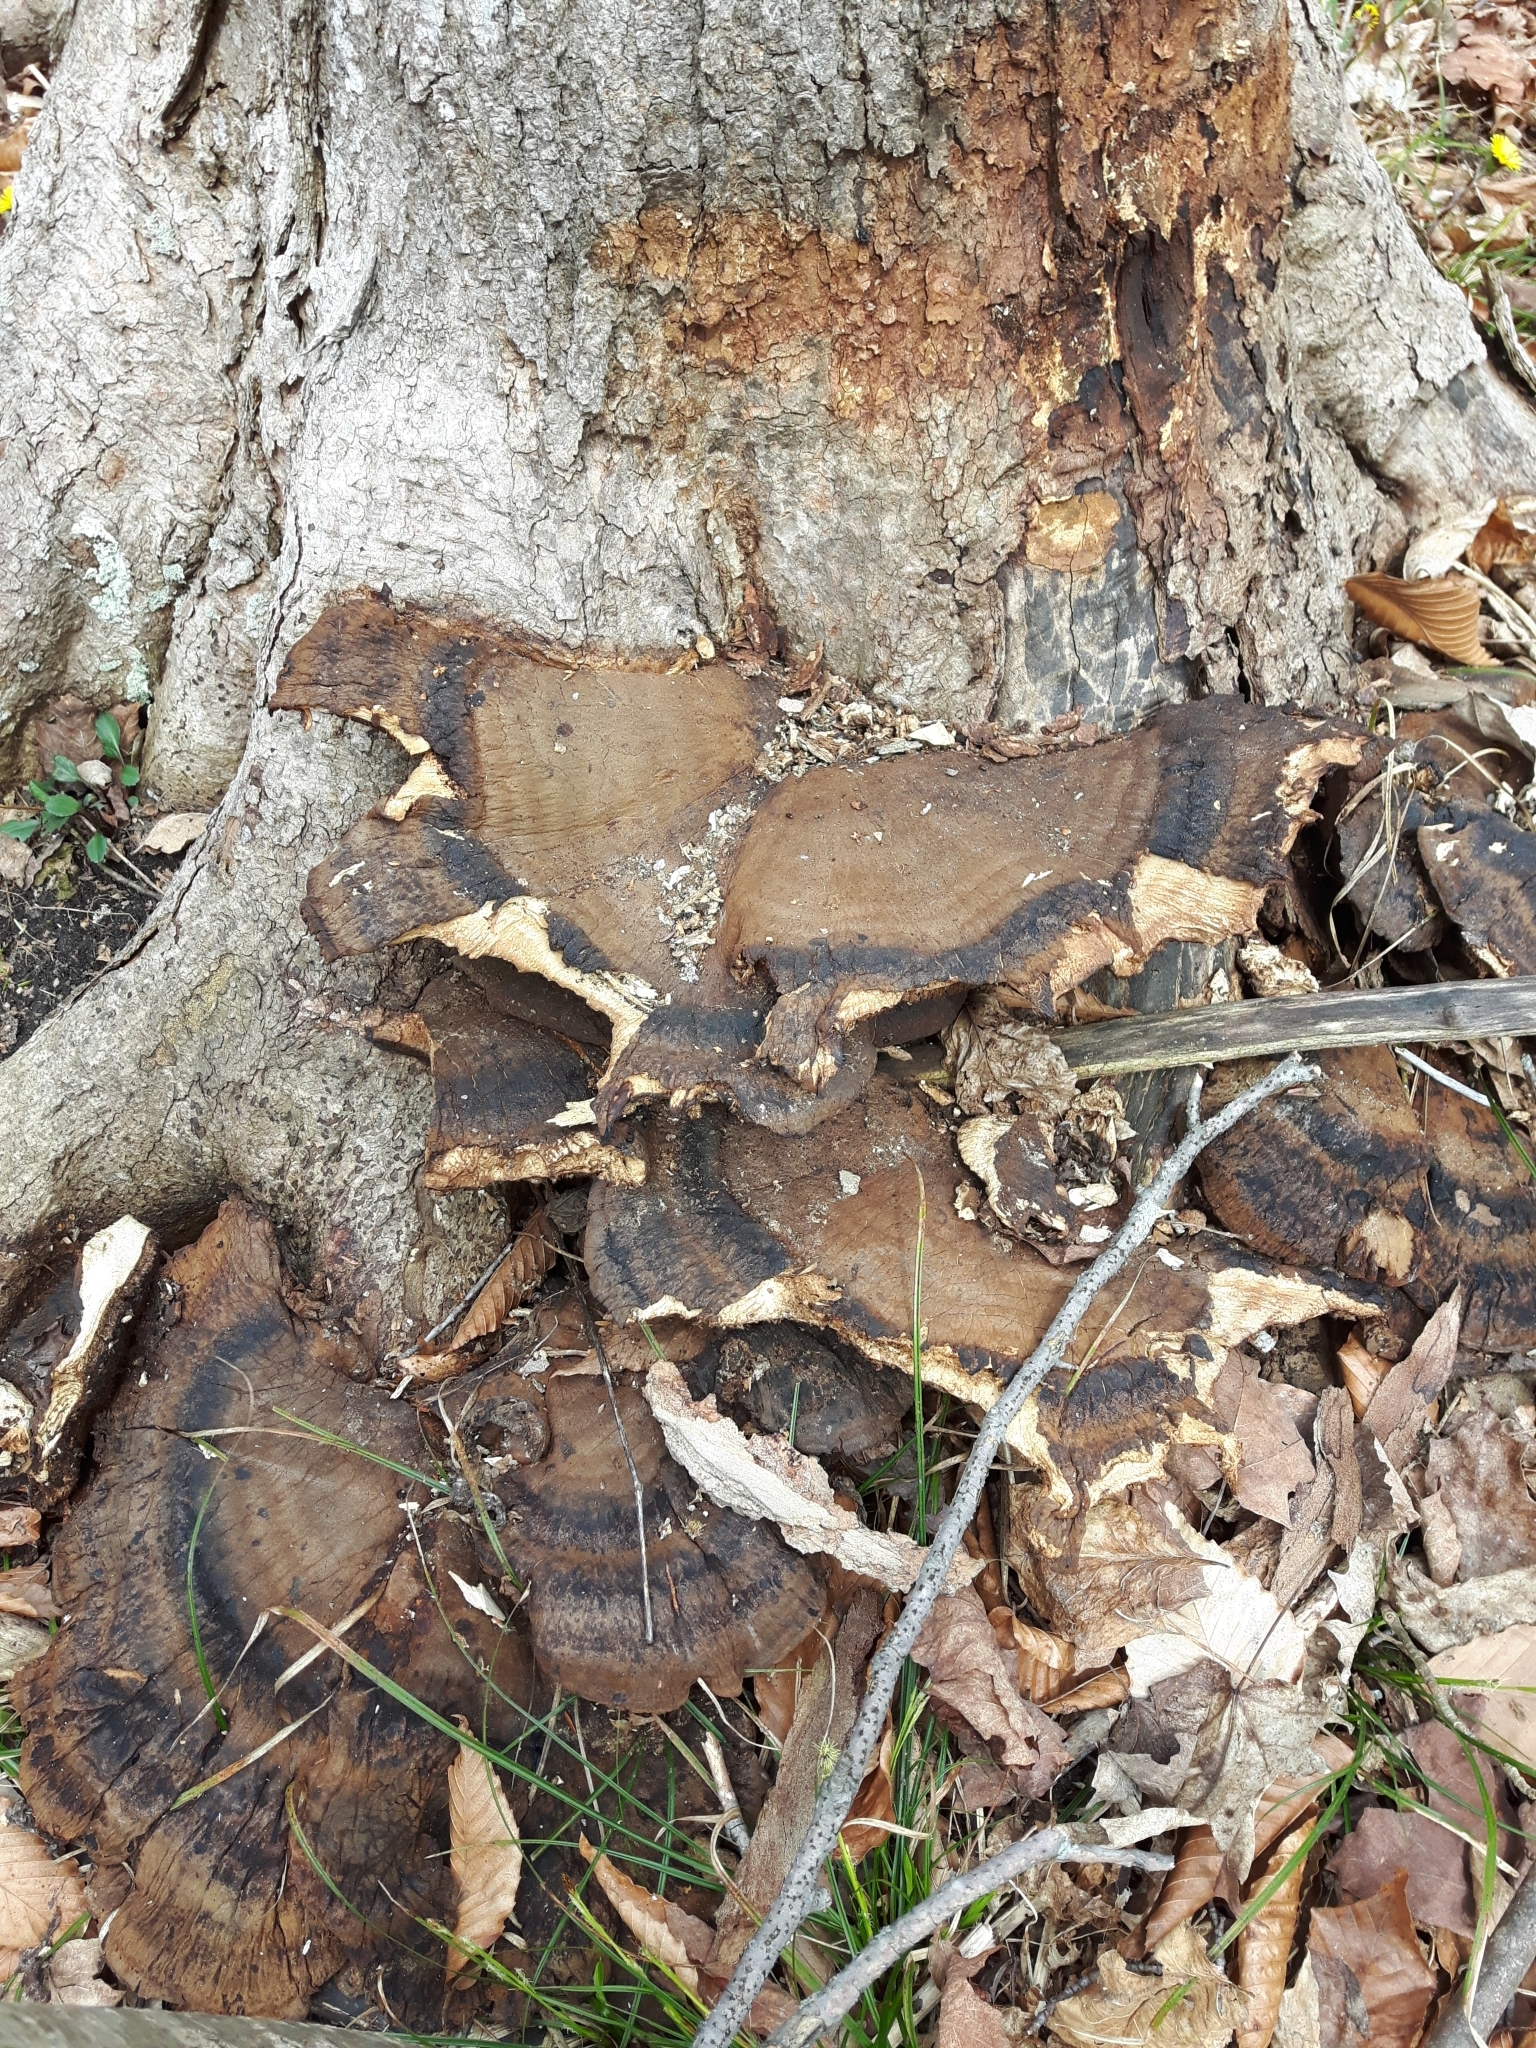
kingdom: Fungi
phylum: Basidiomycota
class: Agaricomycetes
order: Polyporales
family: Ischnodermataceae
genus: Ischnoderma
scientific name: Ischnoderma resinosum
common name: Resinous polypore
